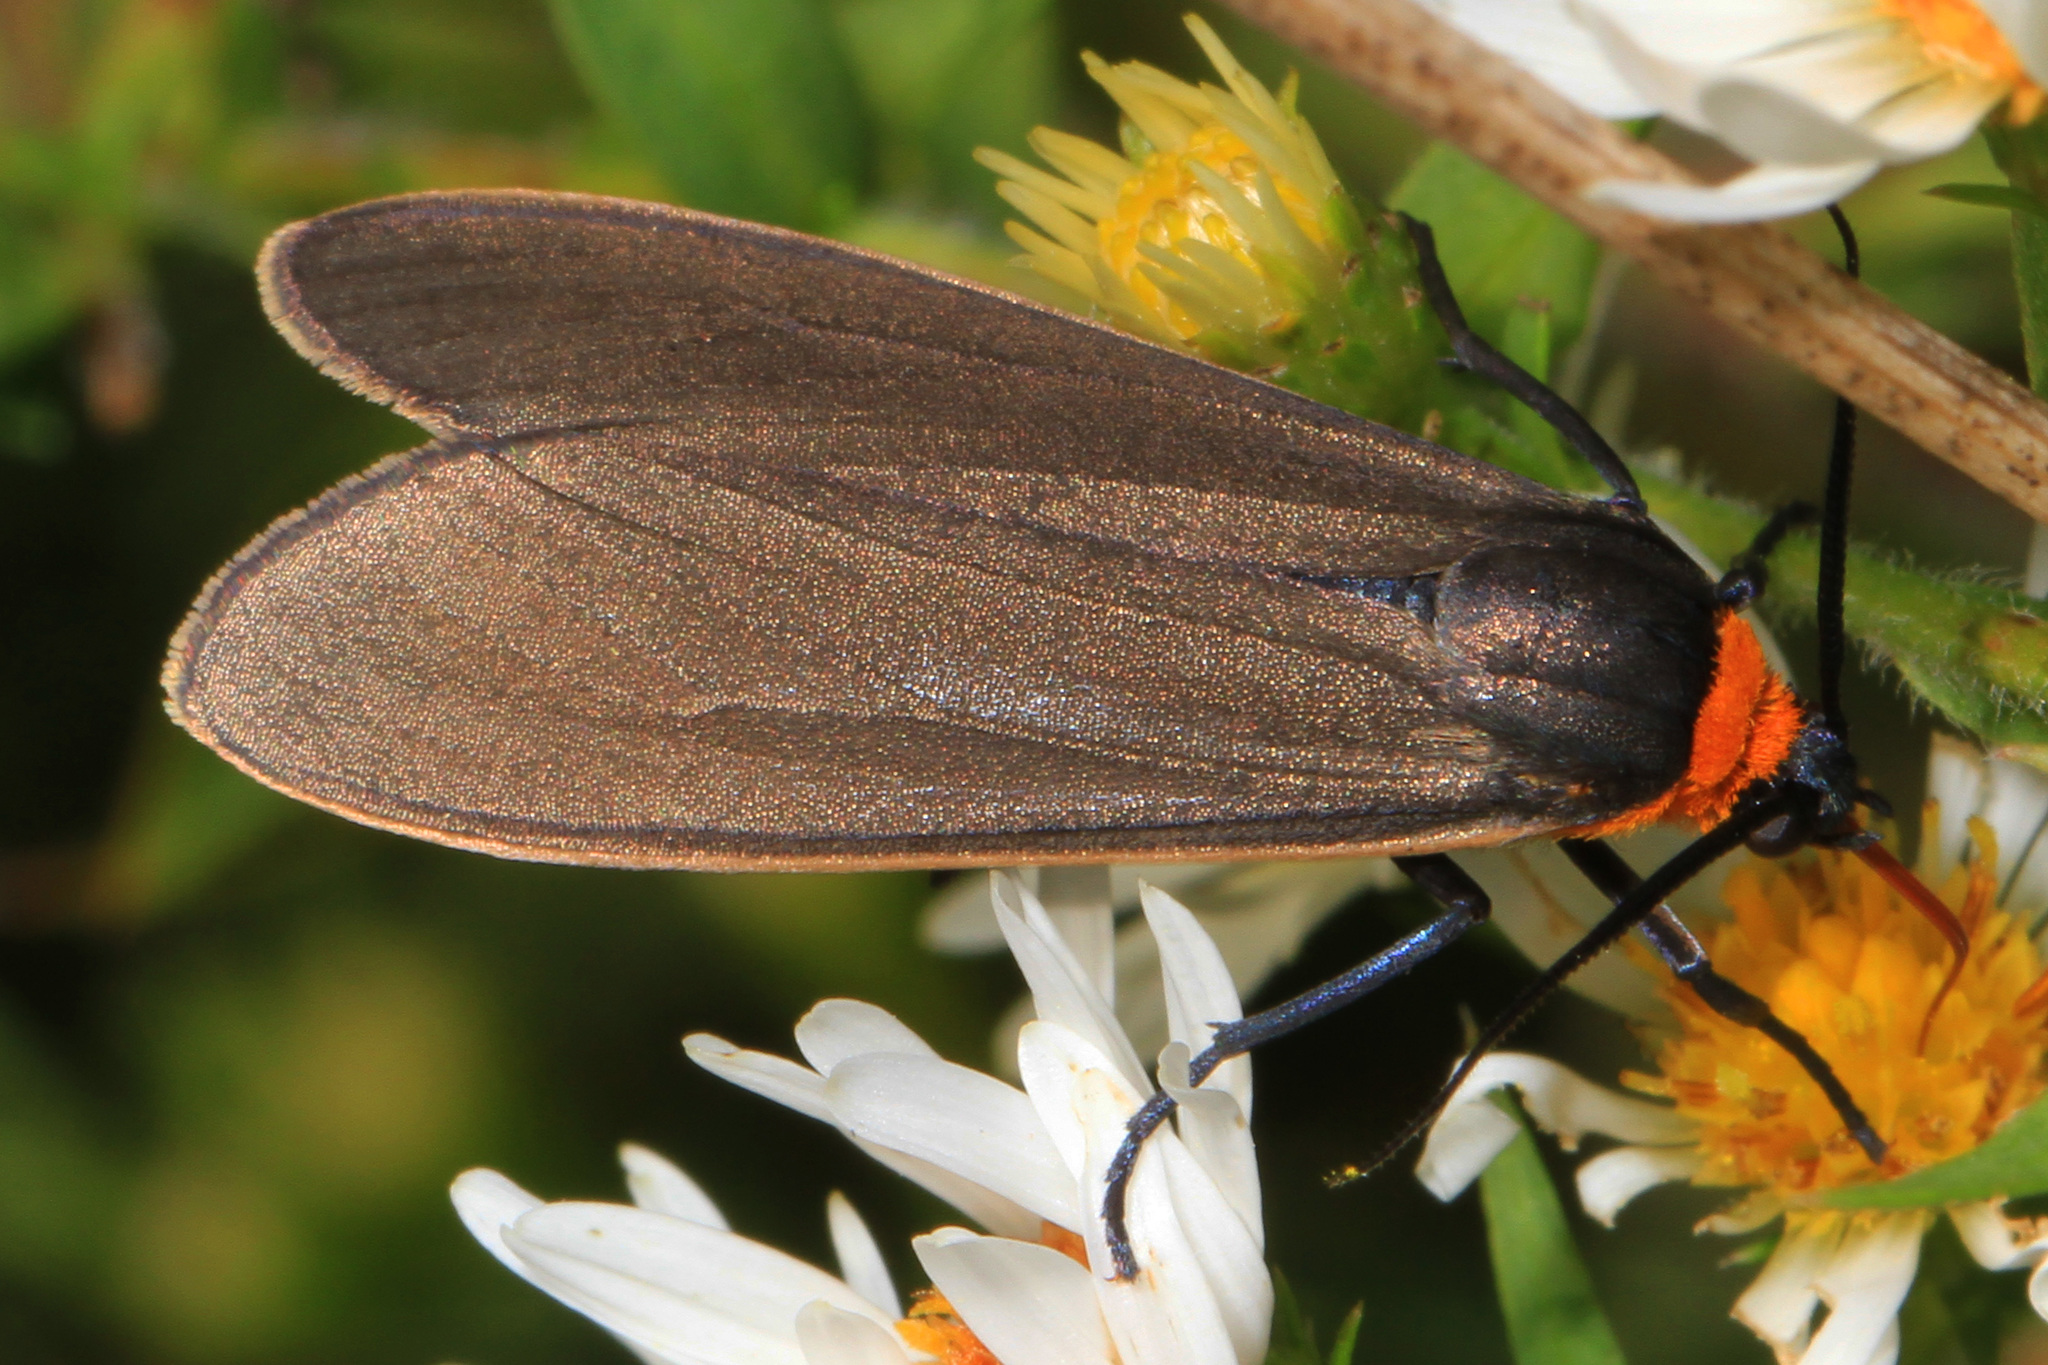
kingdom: Animalia
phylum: Arthropoda
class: Insecta
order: Lepidoptera
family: Erebidae
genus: Cisseps
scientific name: Cisseps fulvicollis
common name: Yellow-collared scape moth
